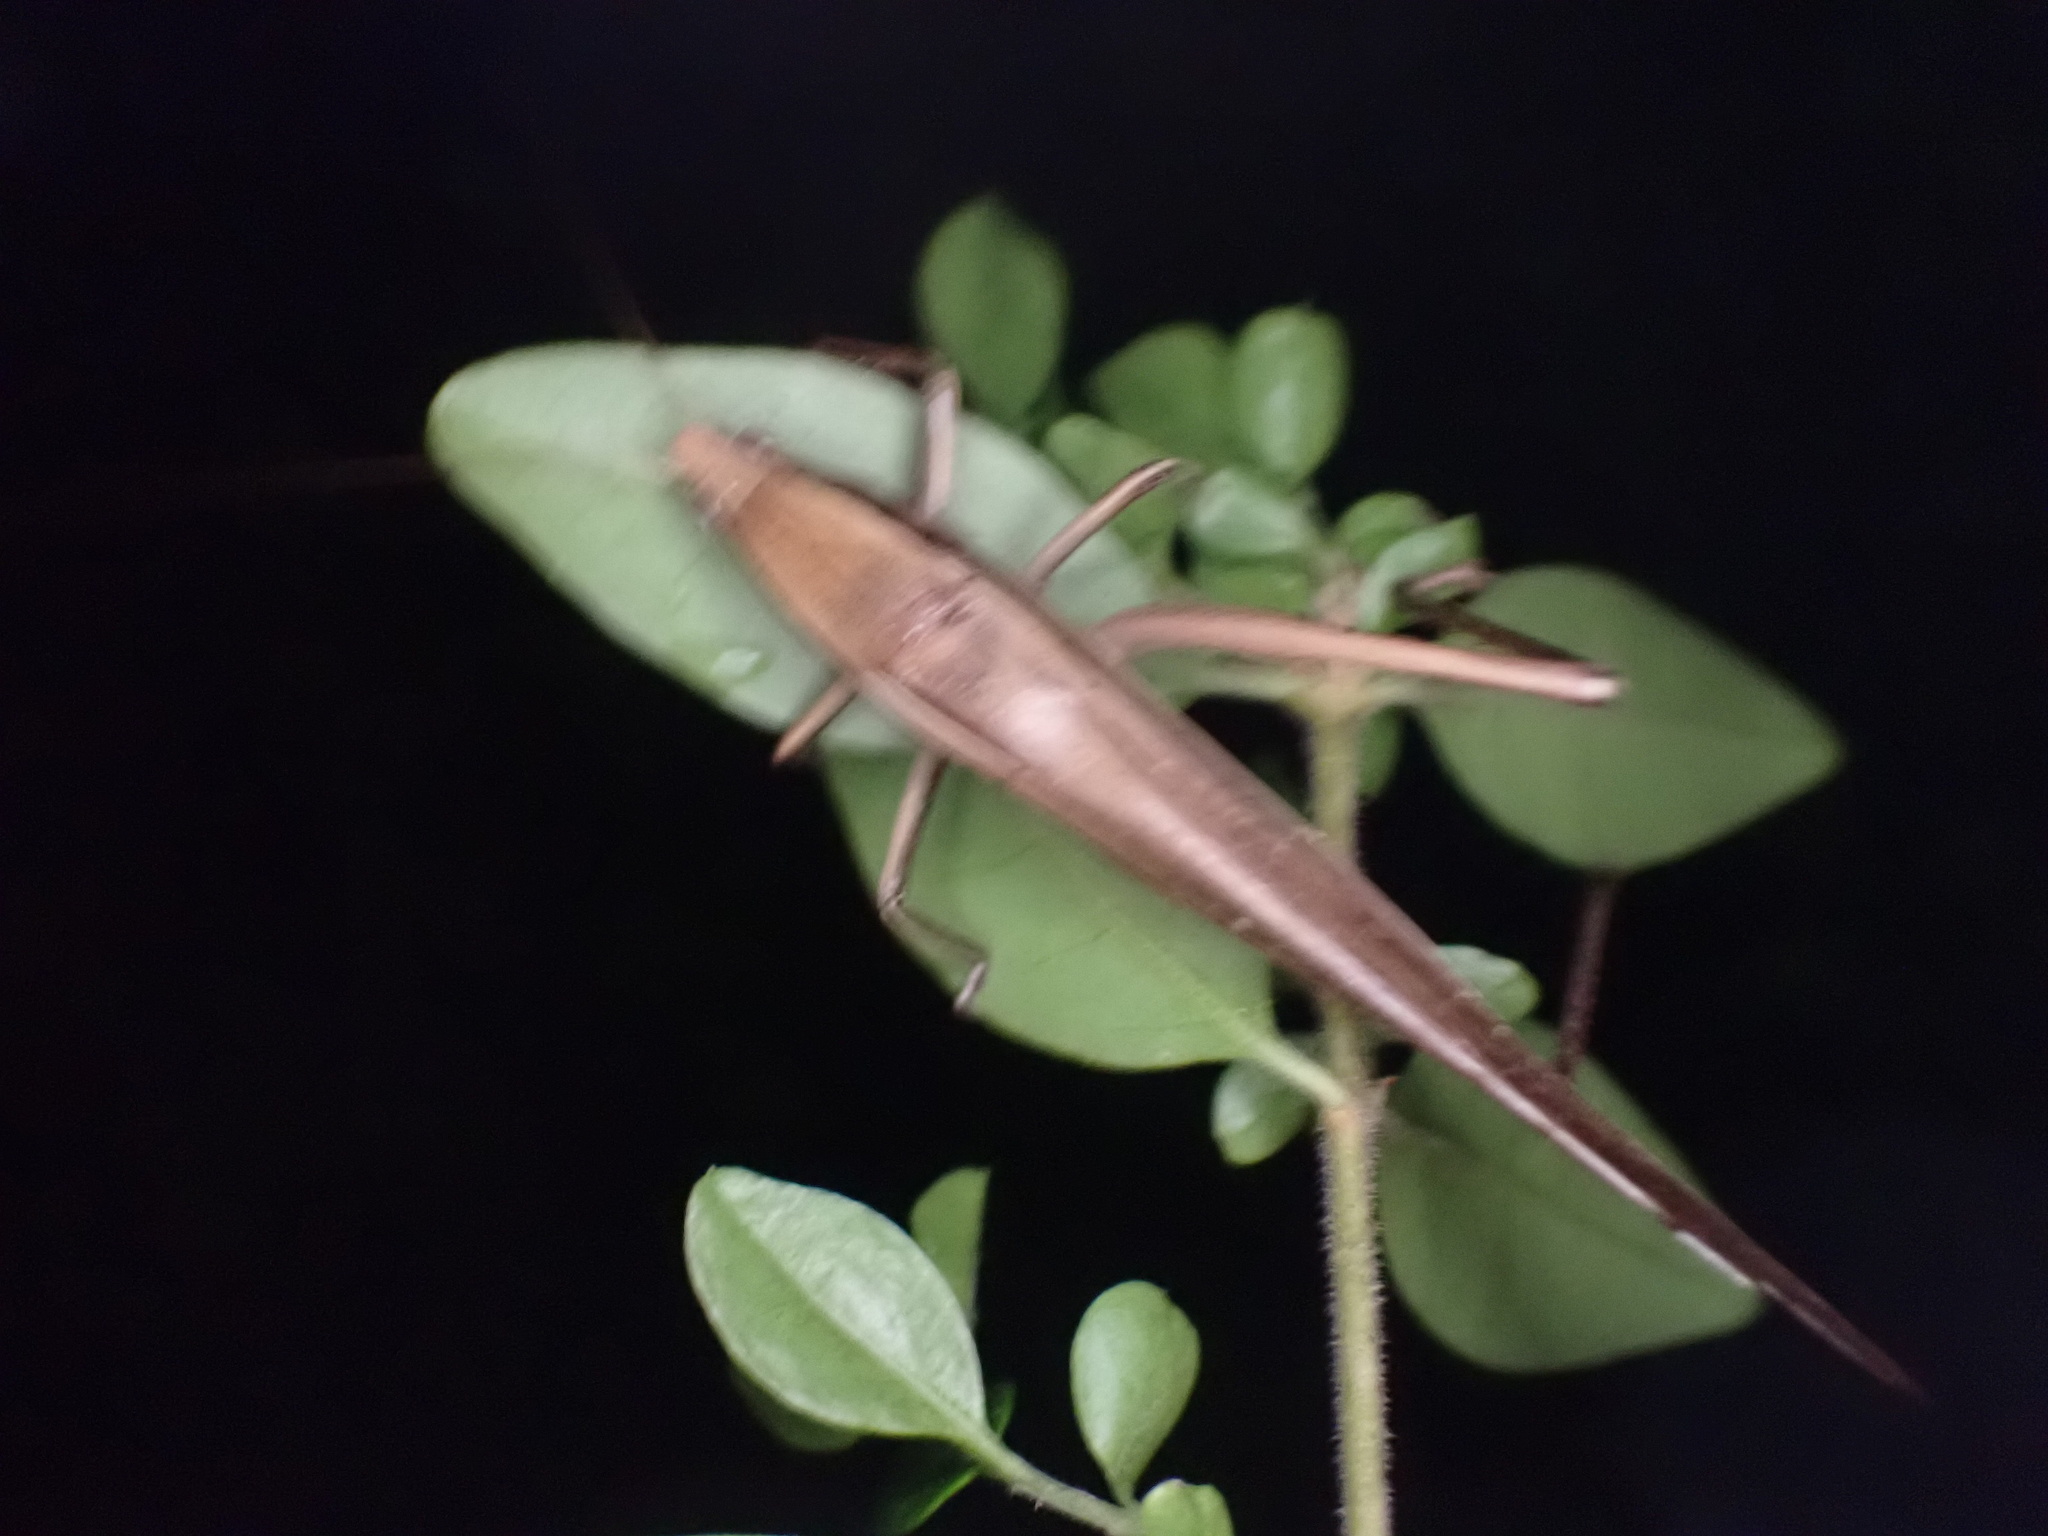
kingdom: Animalia
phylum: Arthropoda
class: Insecta
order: Orthoptera
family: Tettigoniidae
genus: Neoconocephalus
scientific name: Neoconocephalus triops
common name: Broad-tipped conehead
